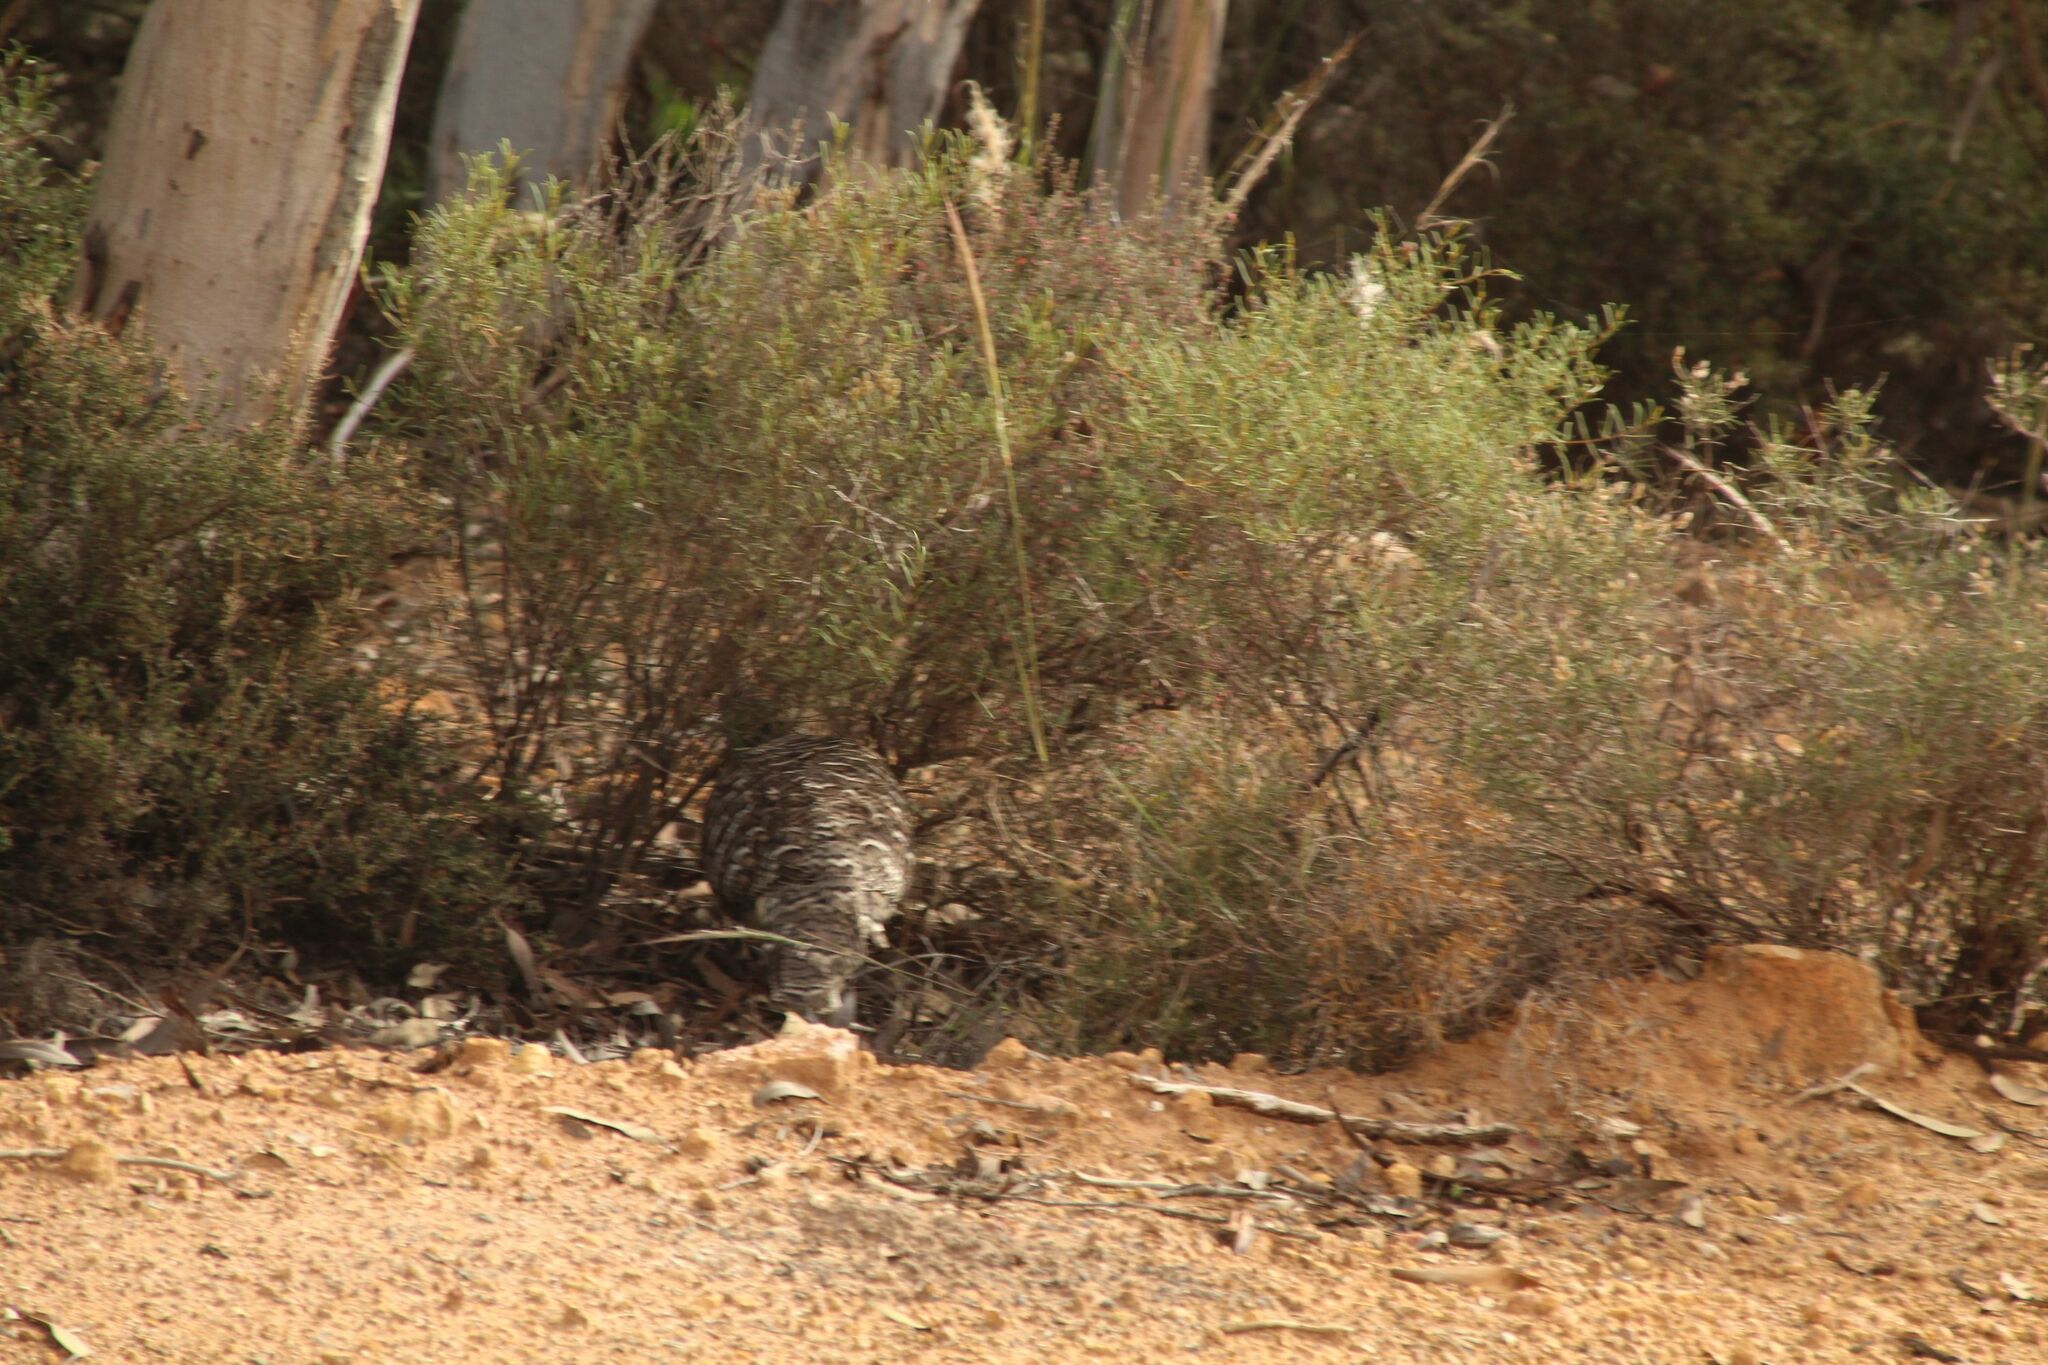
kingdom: Animalia
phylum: Chordata
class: Aves
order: Galliformes
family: Megapodiidae
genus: Leipoa
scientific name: Leipoa ocellata
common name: Malleefowl
